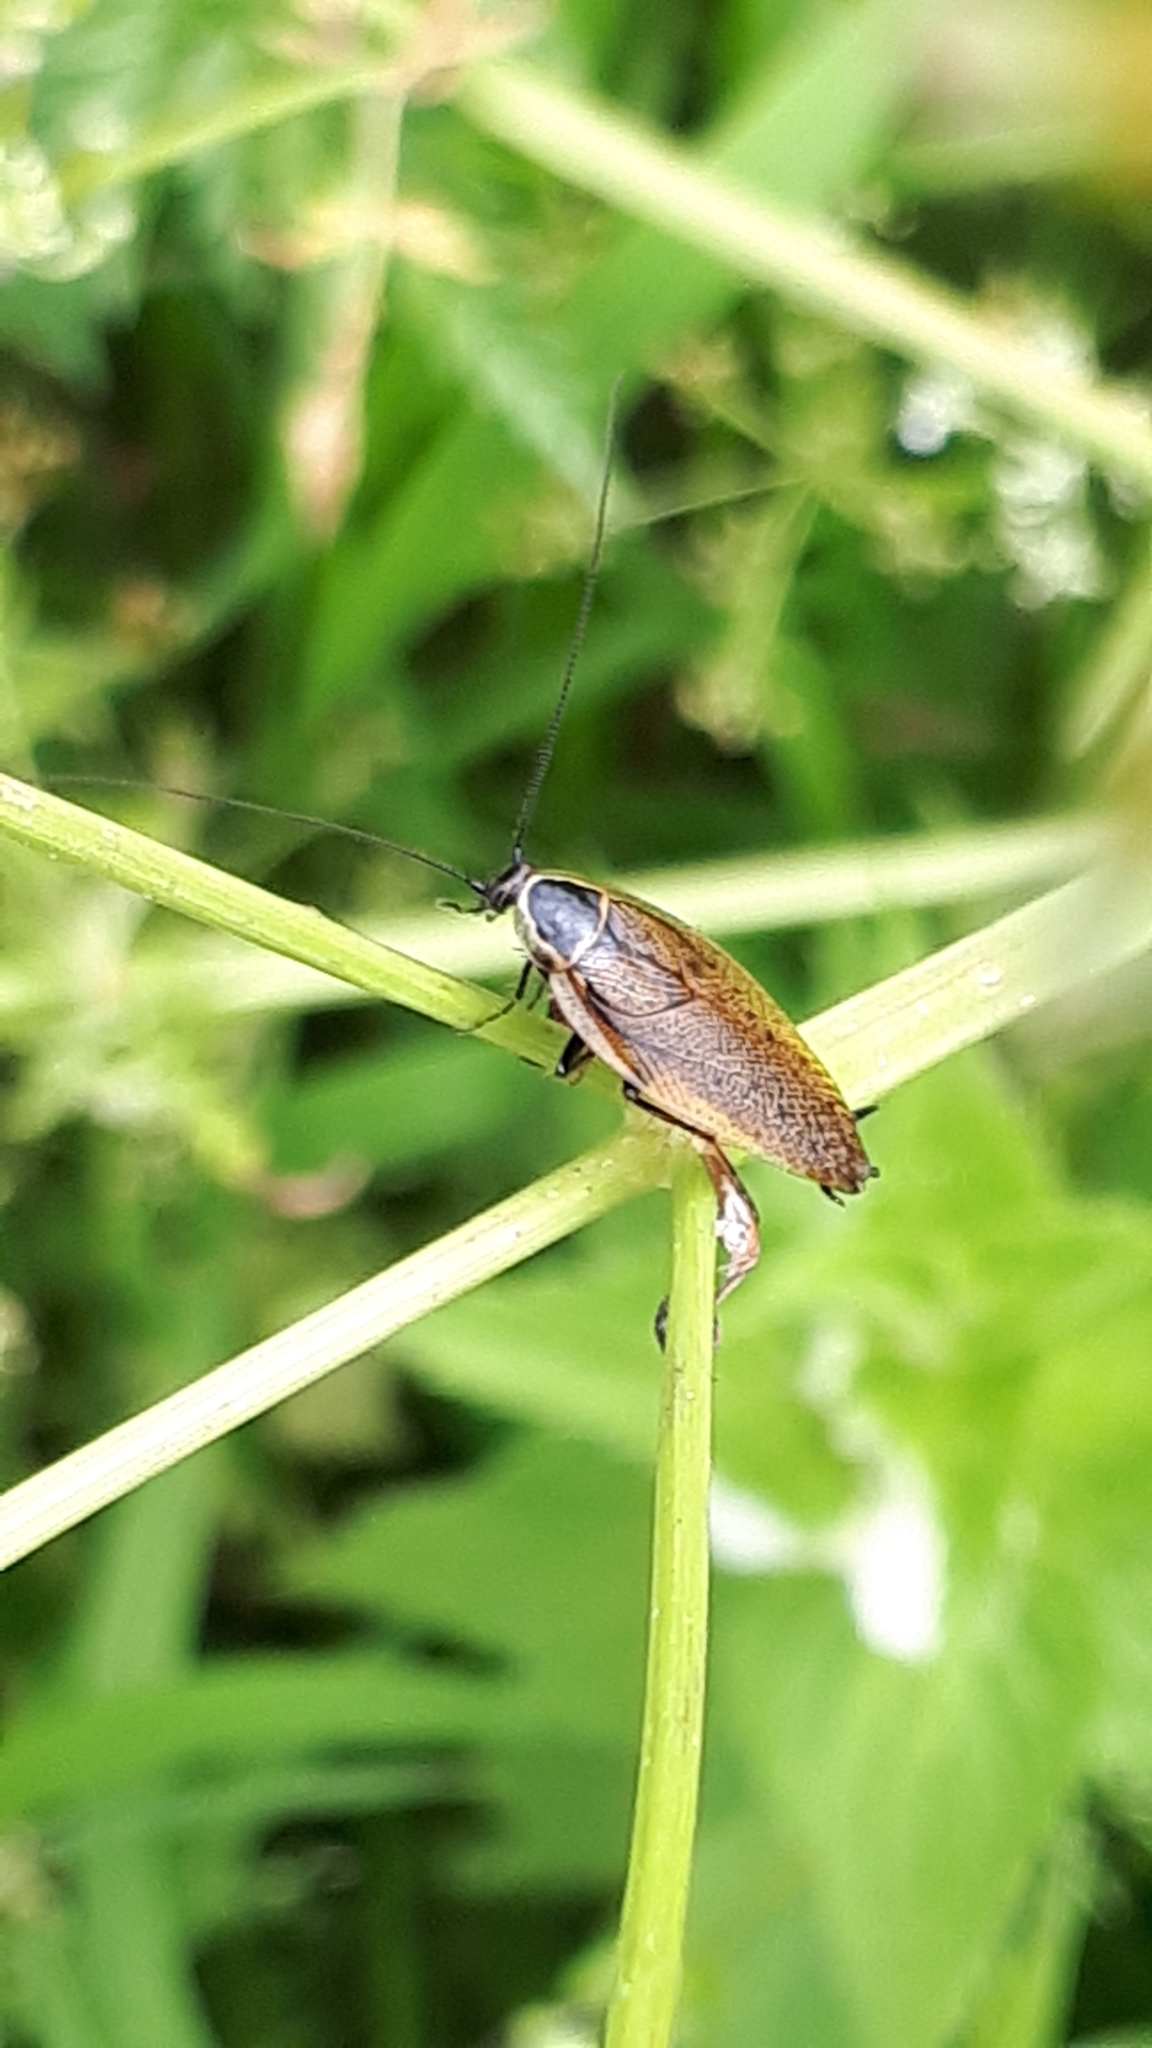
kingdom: Animalia
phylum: Arthropoda
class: Insecta
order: Blattodea
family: Ectobiidae
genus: Ectobius
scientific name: Ectobius sylvestris
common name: Forest cockroach
